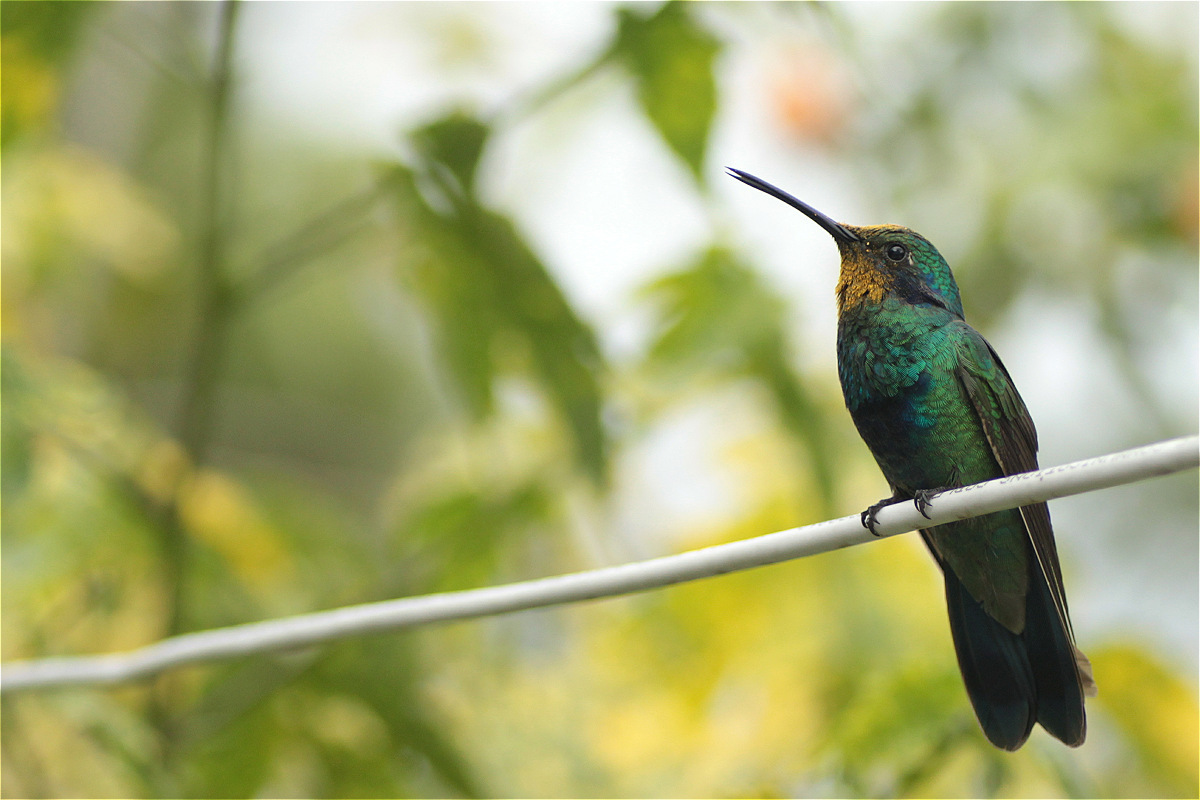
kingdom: Animalia
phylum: Chordata
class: Aves
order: Apodiformes
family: Trochilidae
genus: Colibri
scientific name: Colibri coruscans
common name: Sparkling violetear
